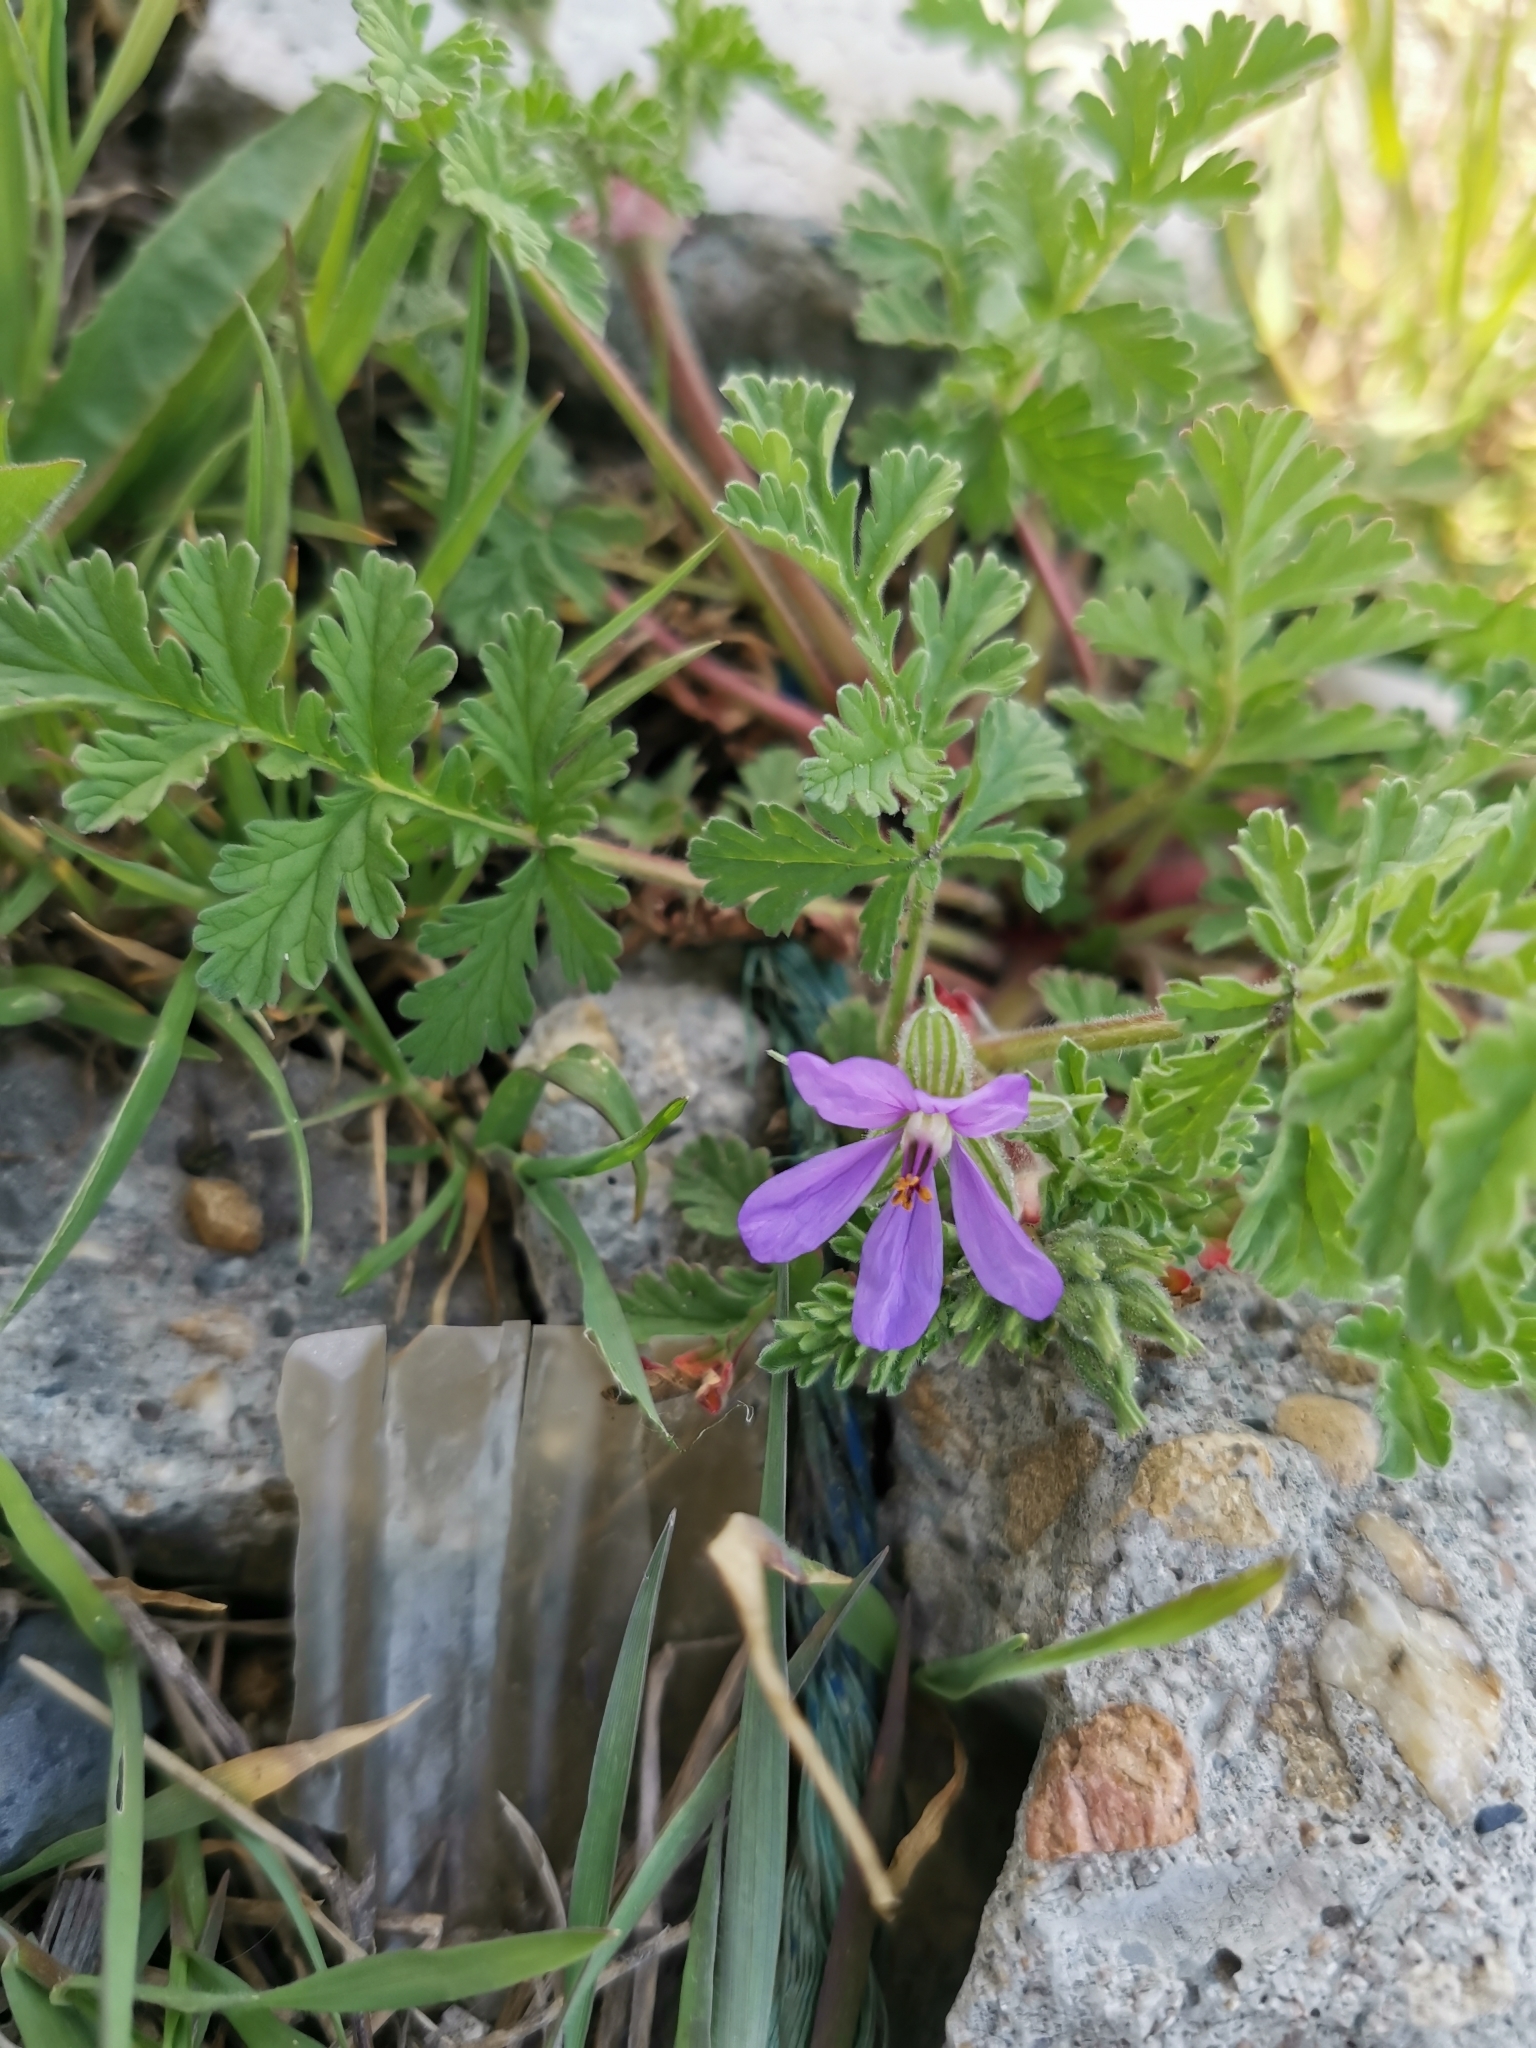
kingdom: Plantae
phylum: Tracheophyta
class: Magnoliopsida
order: Geraniales
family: Geraniaceae
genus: Erodium
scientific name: Erodium ciconium
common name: Common stork's bill
